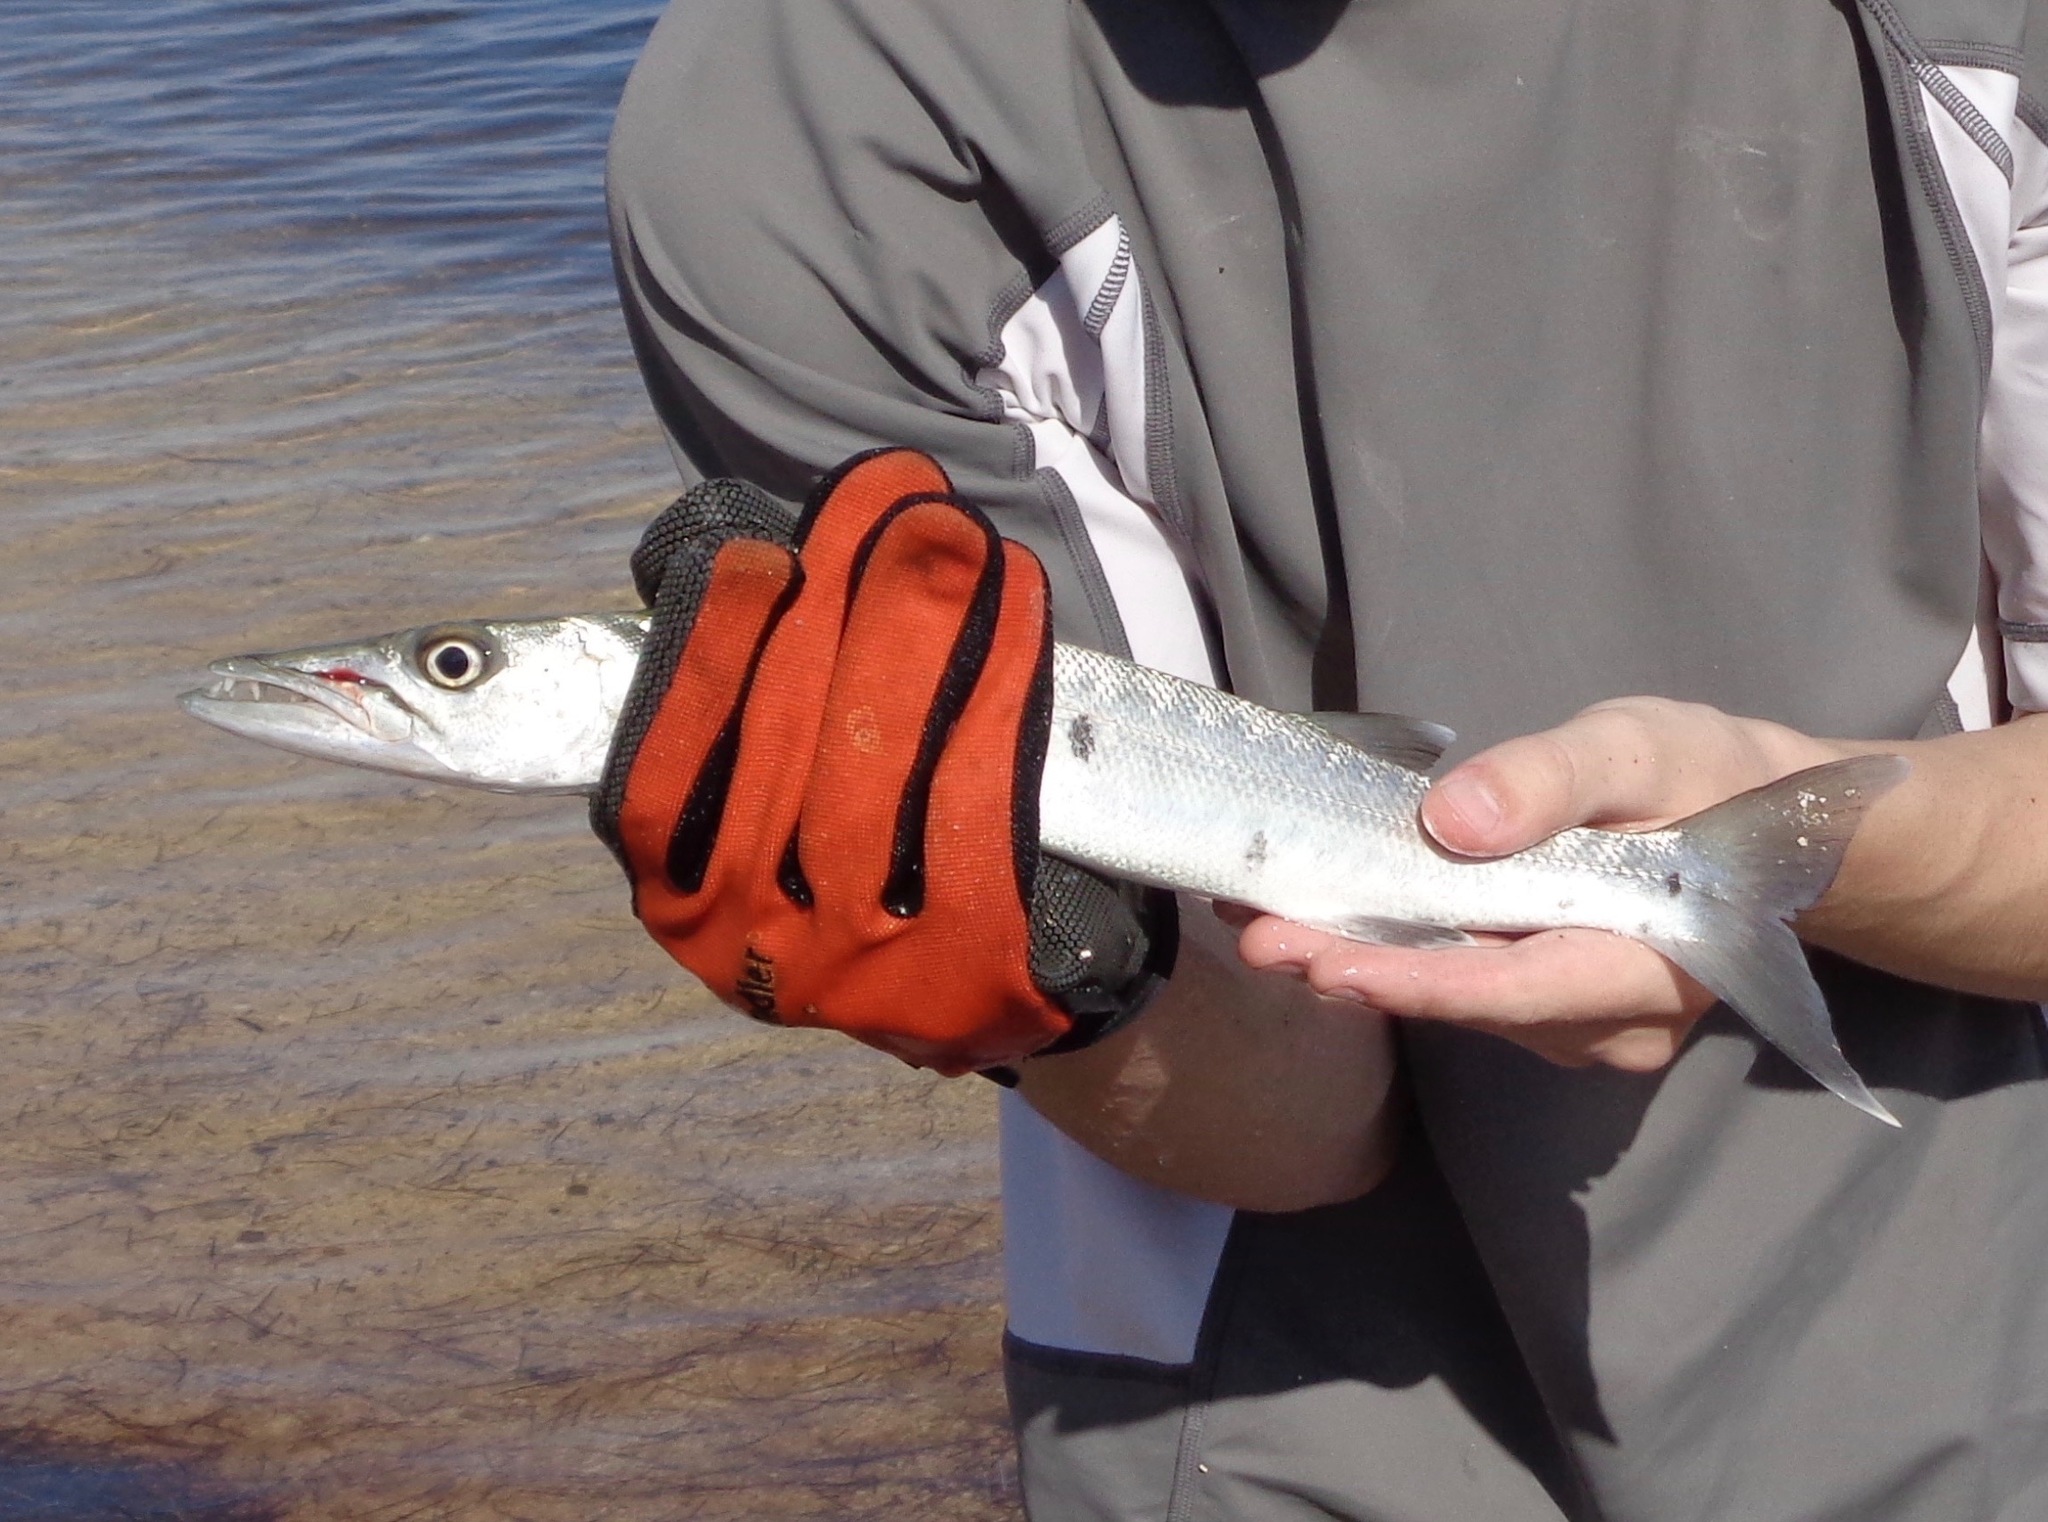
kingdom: Animalia
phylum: Chordata
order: Perciformes
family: Sphyraenidae
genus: Sphyraena
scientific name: Sphyraena barracuda
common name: Great barracuda
